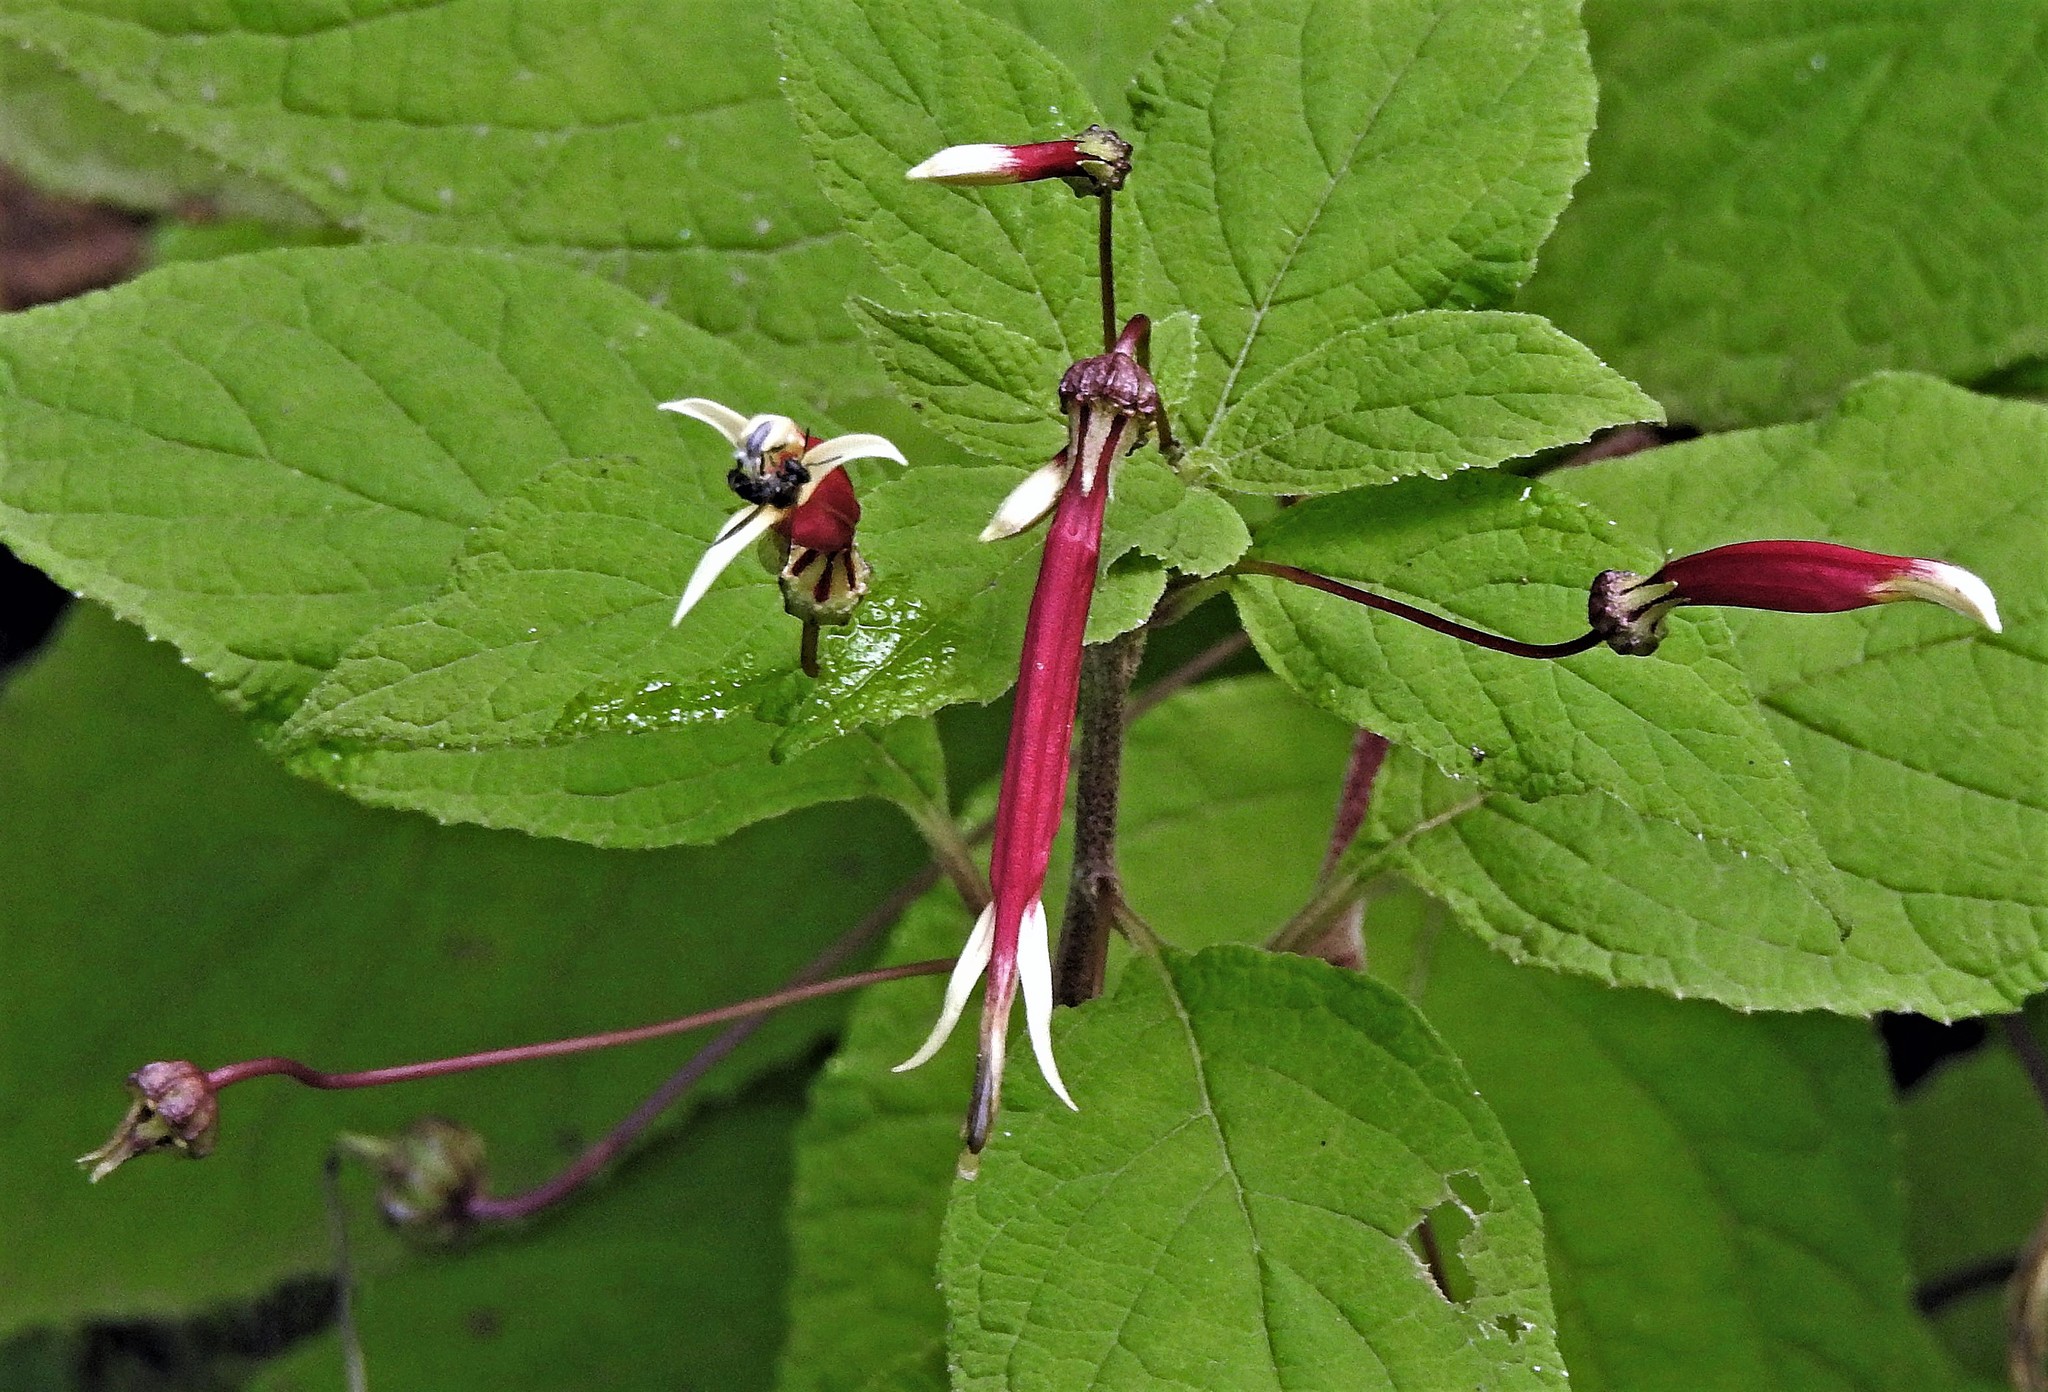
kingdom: Plantae
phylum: Tracheophyta
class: Magnoliopsida
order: Asterales
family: Campanulaceae
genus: Siphocampylus
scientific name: Siphocampylus argentinus
